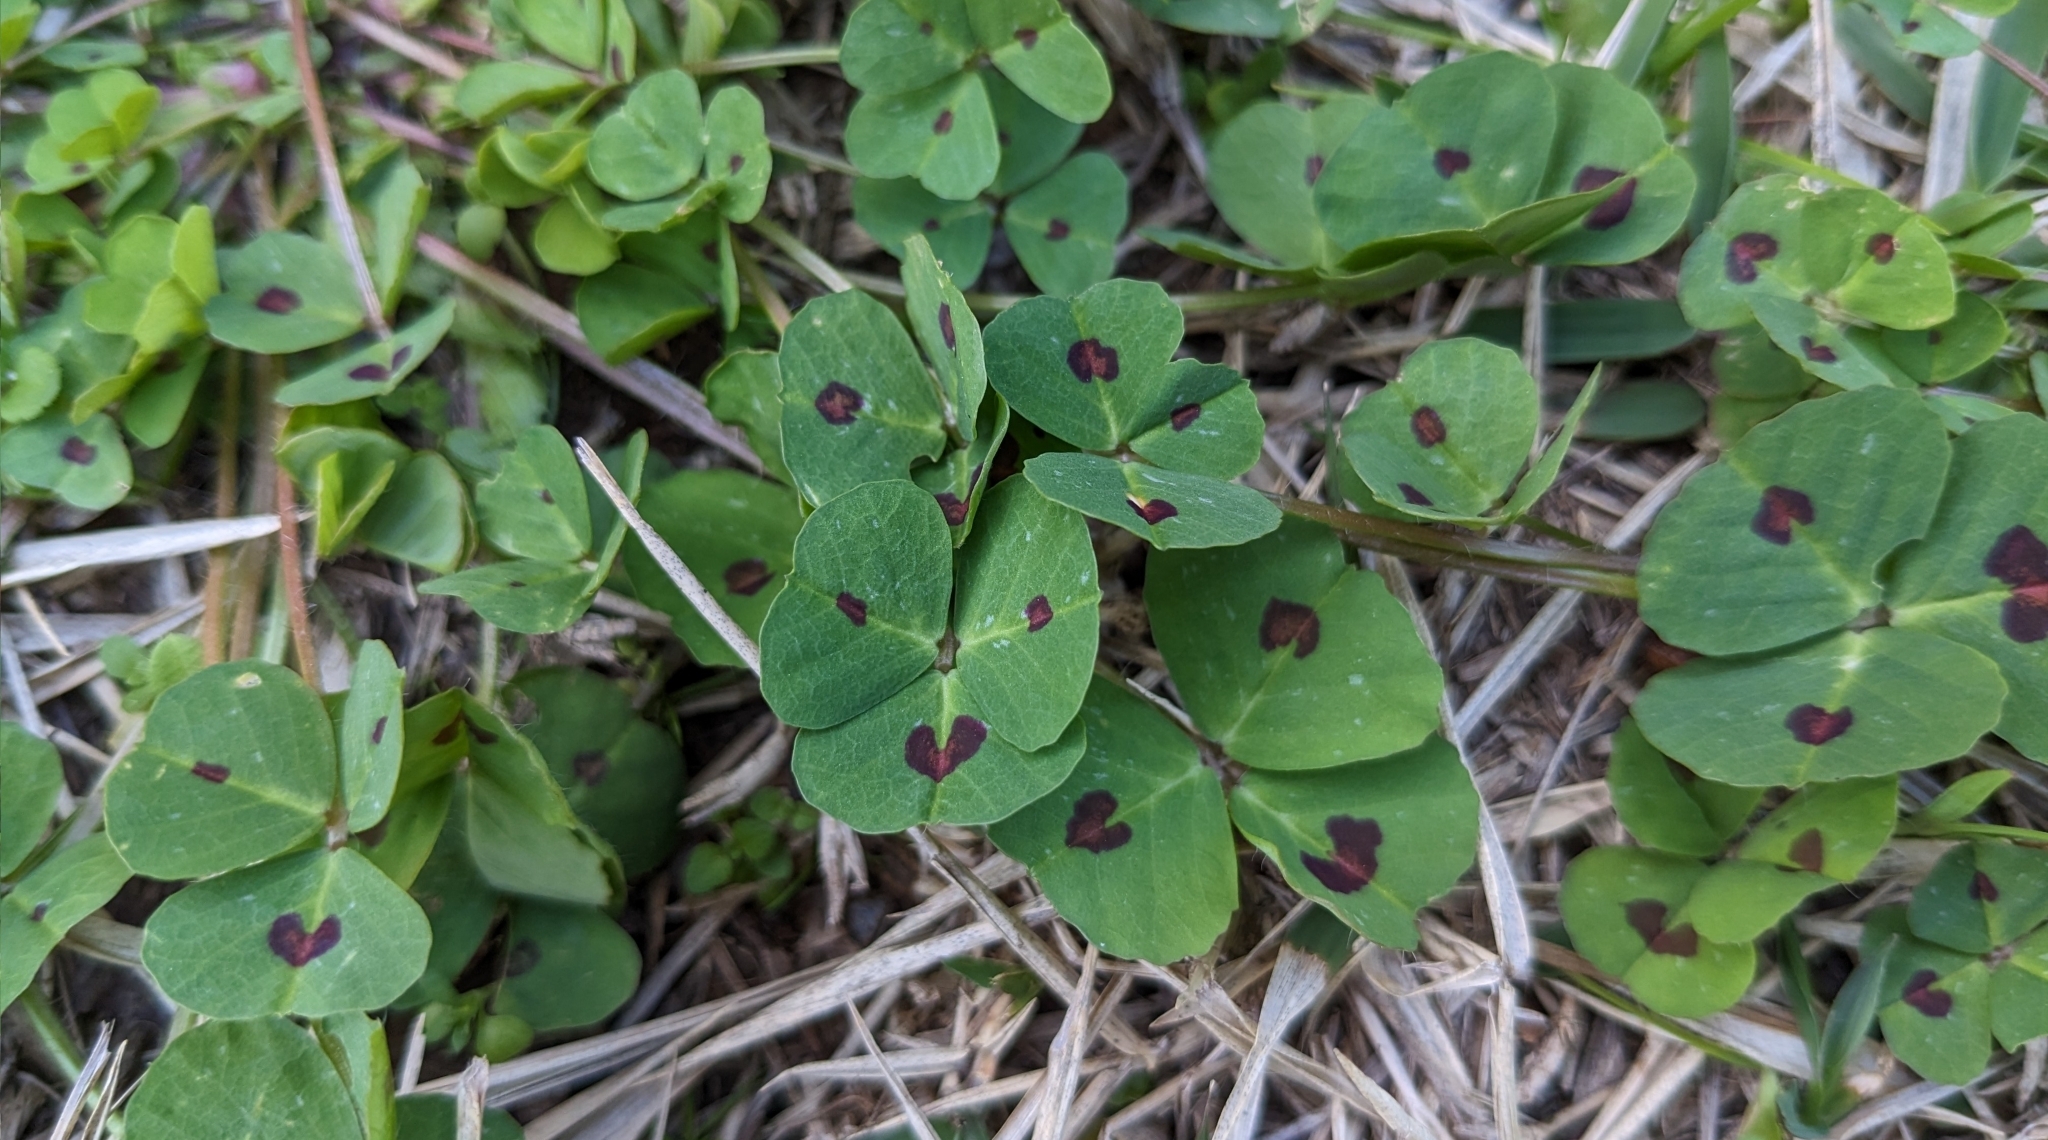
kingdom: Plantae
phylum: Tracheophyta
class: Magnoliopsida
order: Fabales
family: Fabaceae
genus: Medicago
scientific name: Medicago arabica
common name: Spotted medick
